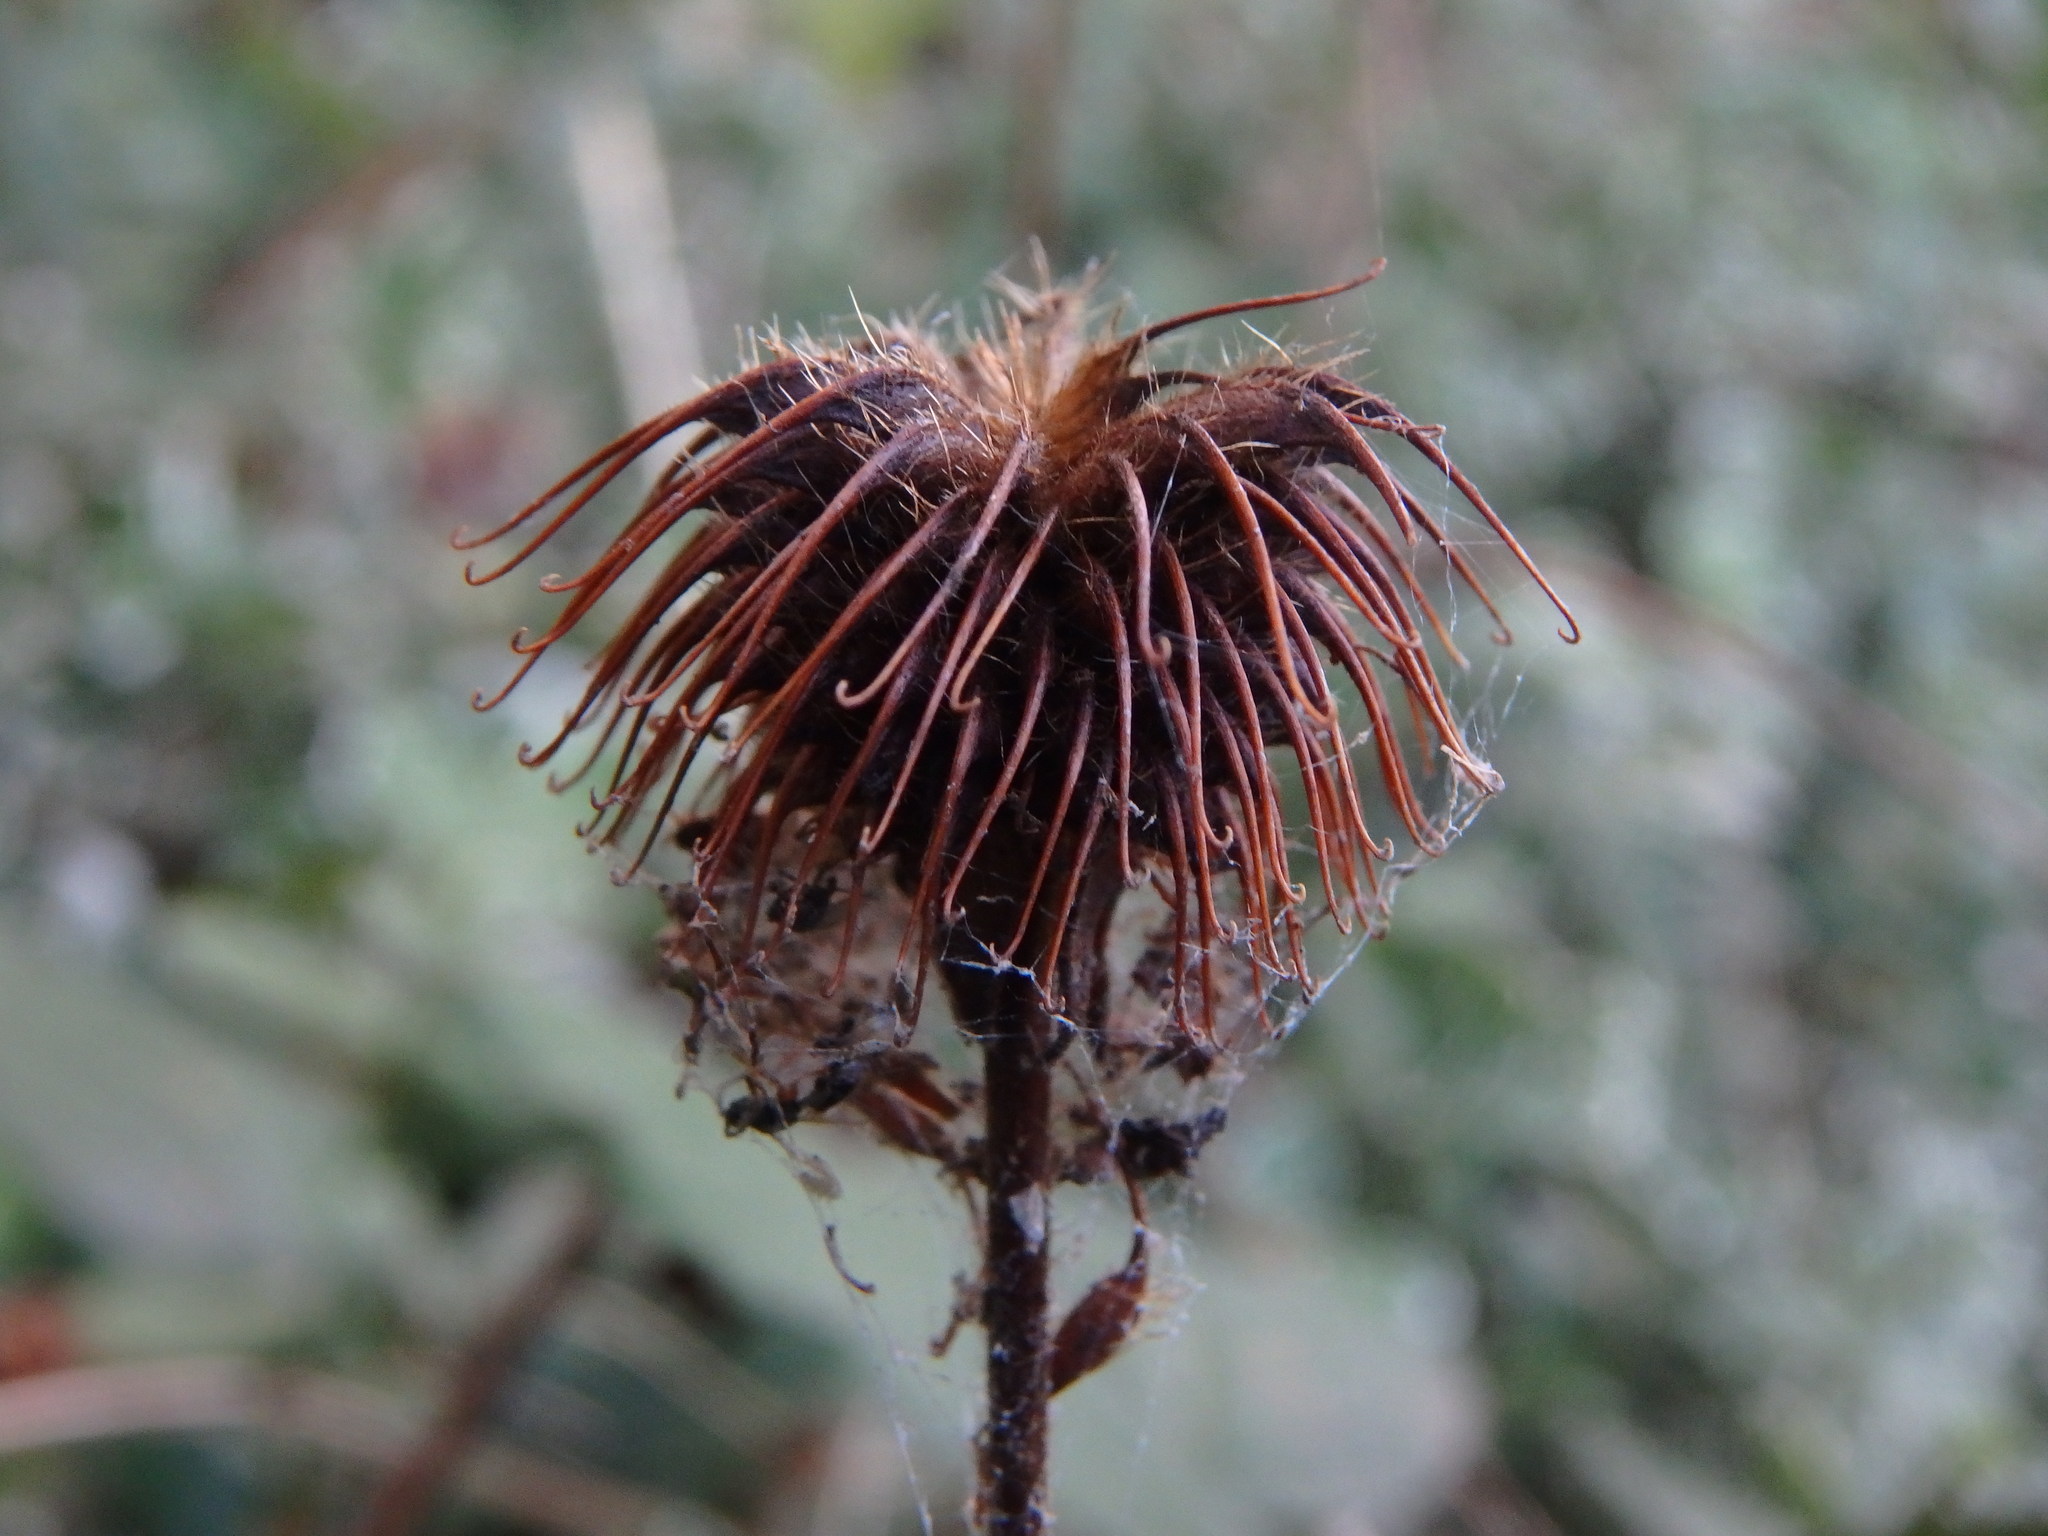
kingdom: Plantae
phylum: Tracheophyta
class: Magnoliopsida
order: Rosales
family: Rosaceae
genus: Geum
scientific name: Geum urbanum
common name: Wood avens
